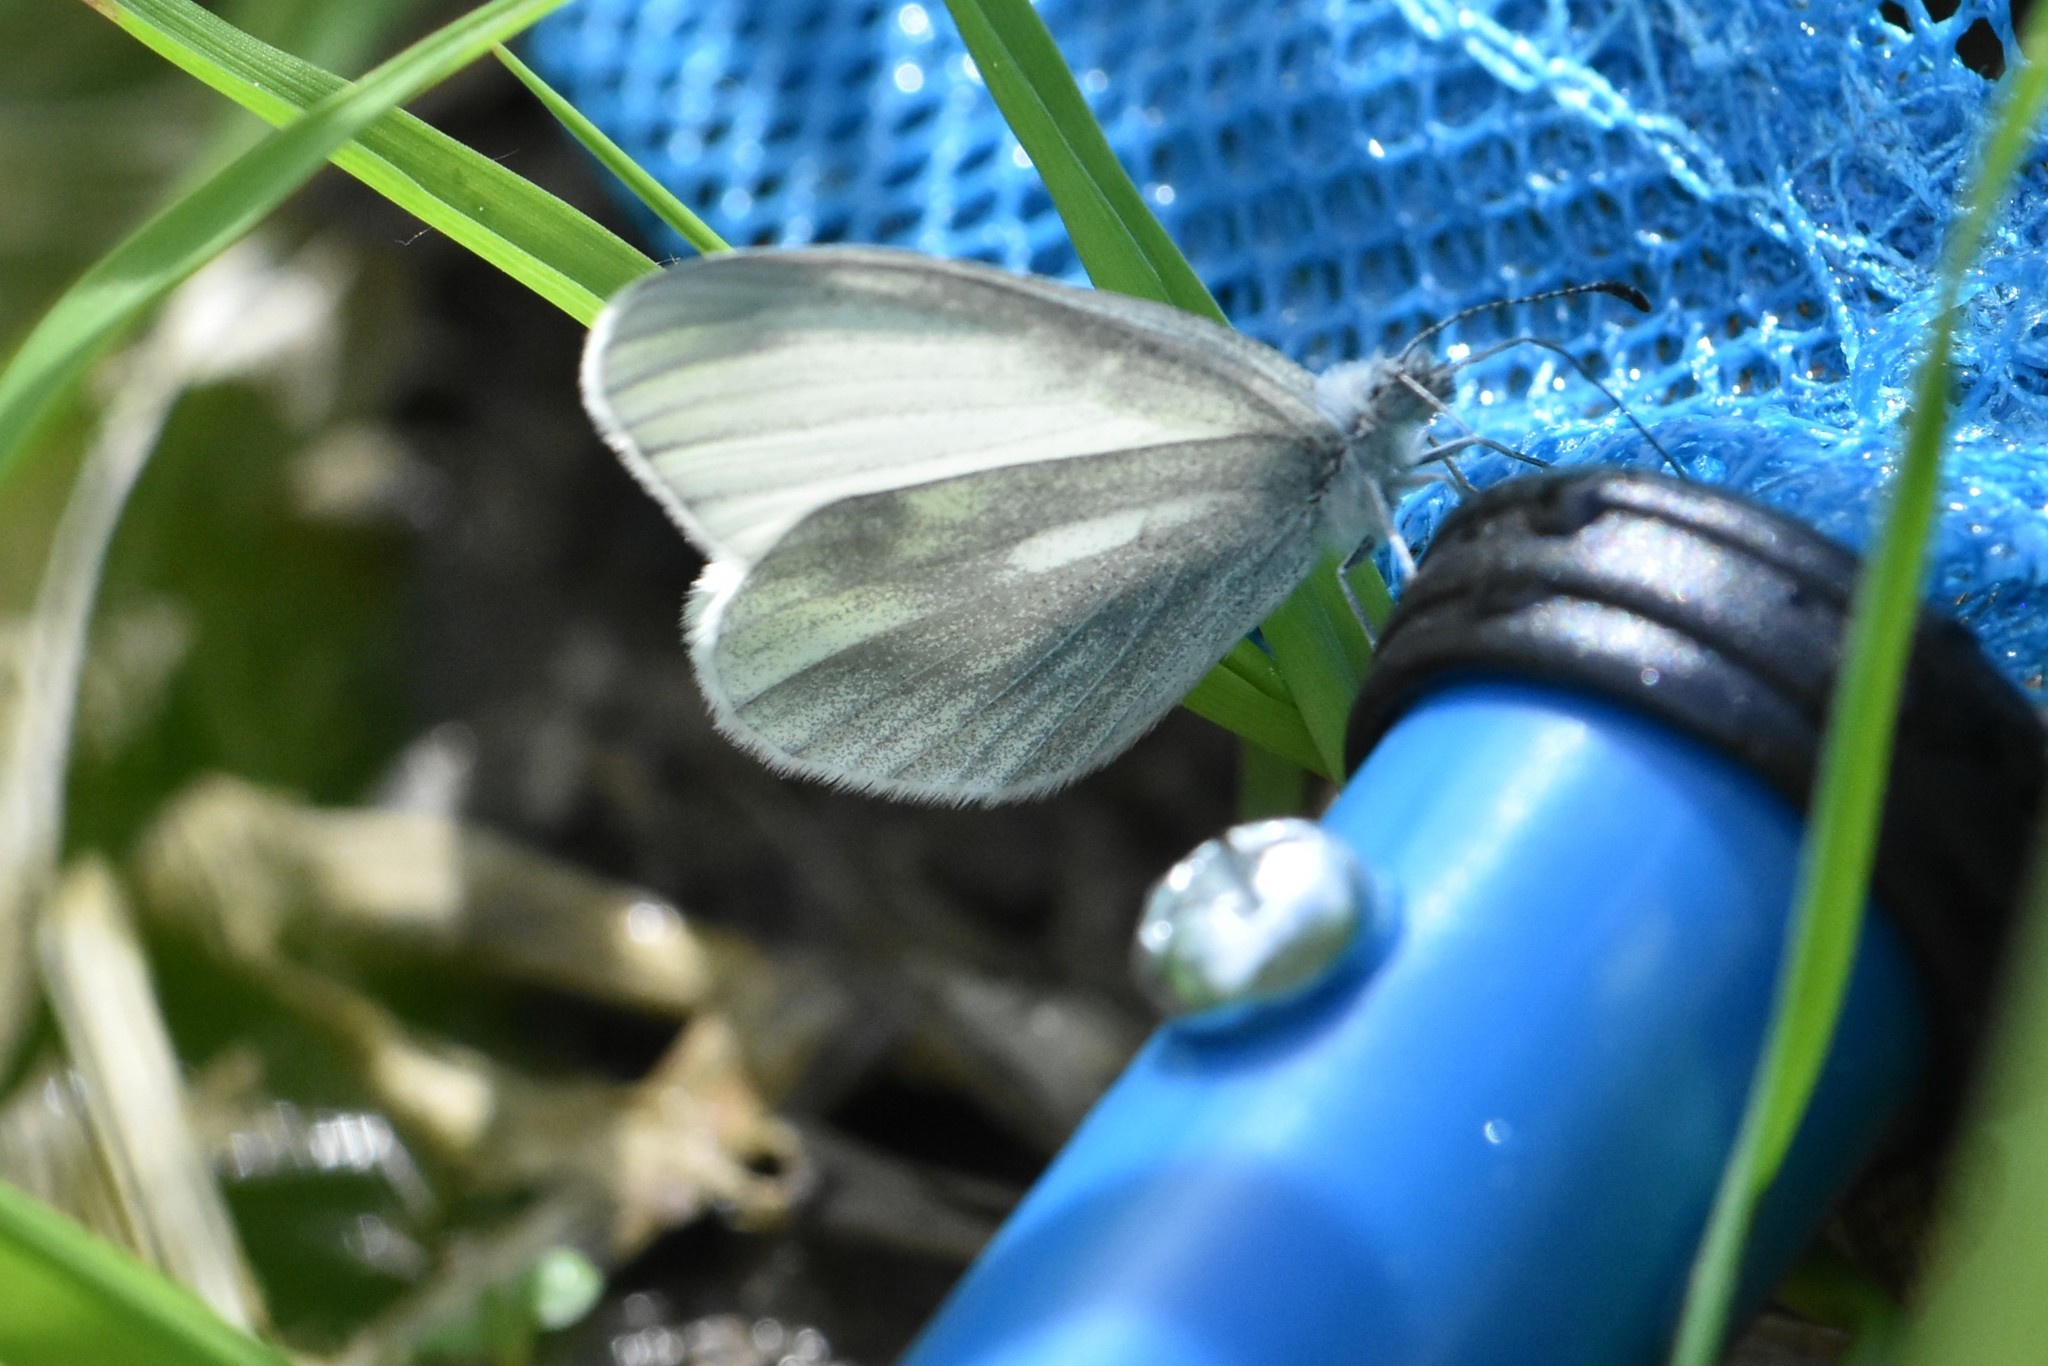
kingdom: Animalia
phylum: Arthropoda
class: Insecta
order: Lepidoptera
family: Pieridae
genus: Leptidea
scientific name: Leptidea
